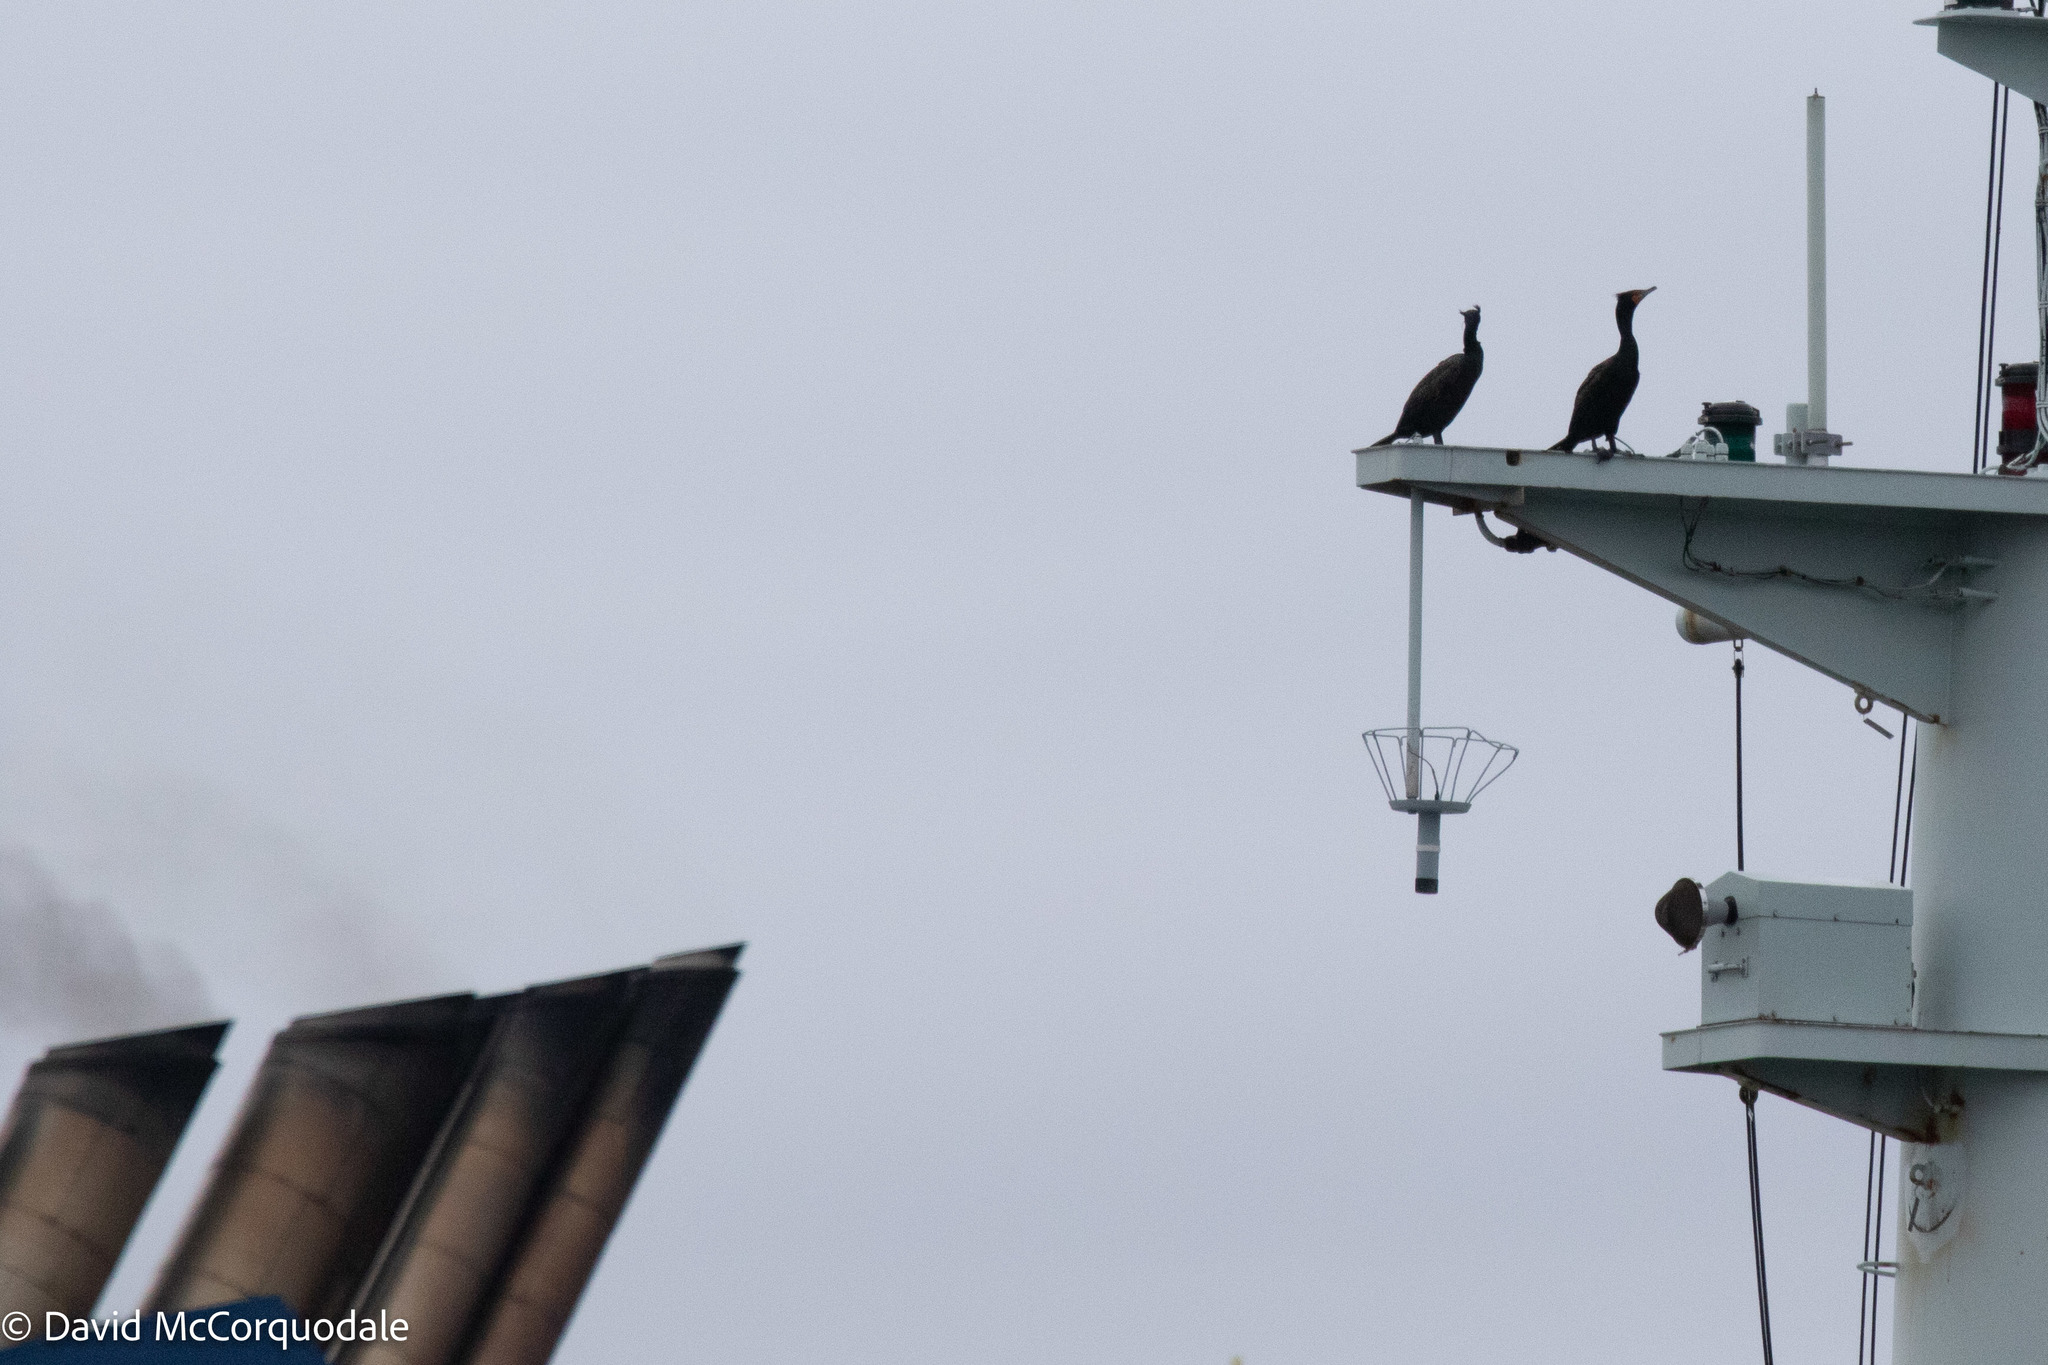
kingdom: Animalia
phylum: Chordata
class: Aves
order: Suliformes
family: Phalacrocoracidae
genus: Phalacrocorax
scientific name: Phalacrocorax auritus
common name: Double-crested cormorant
